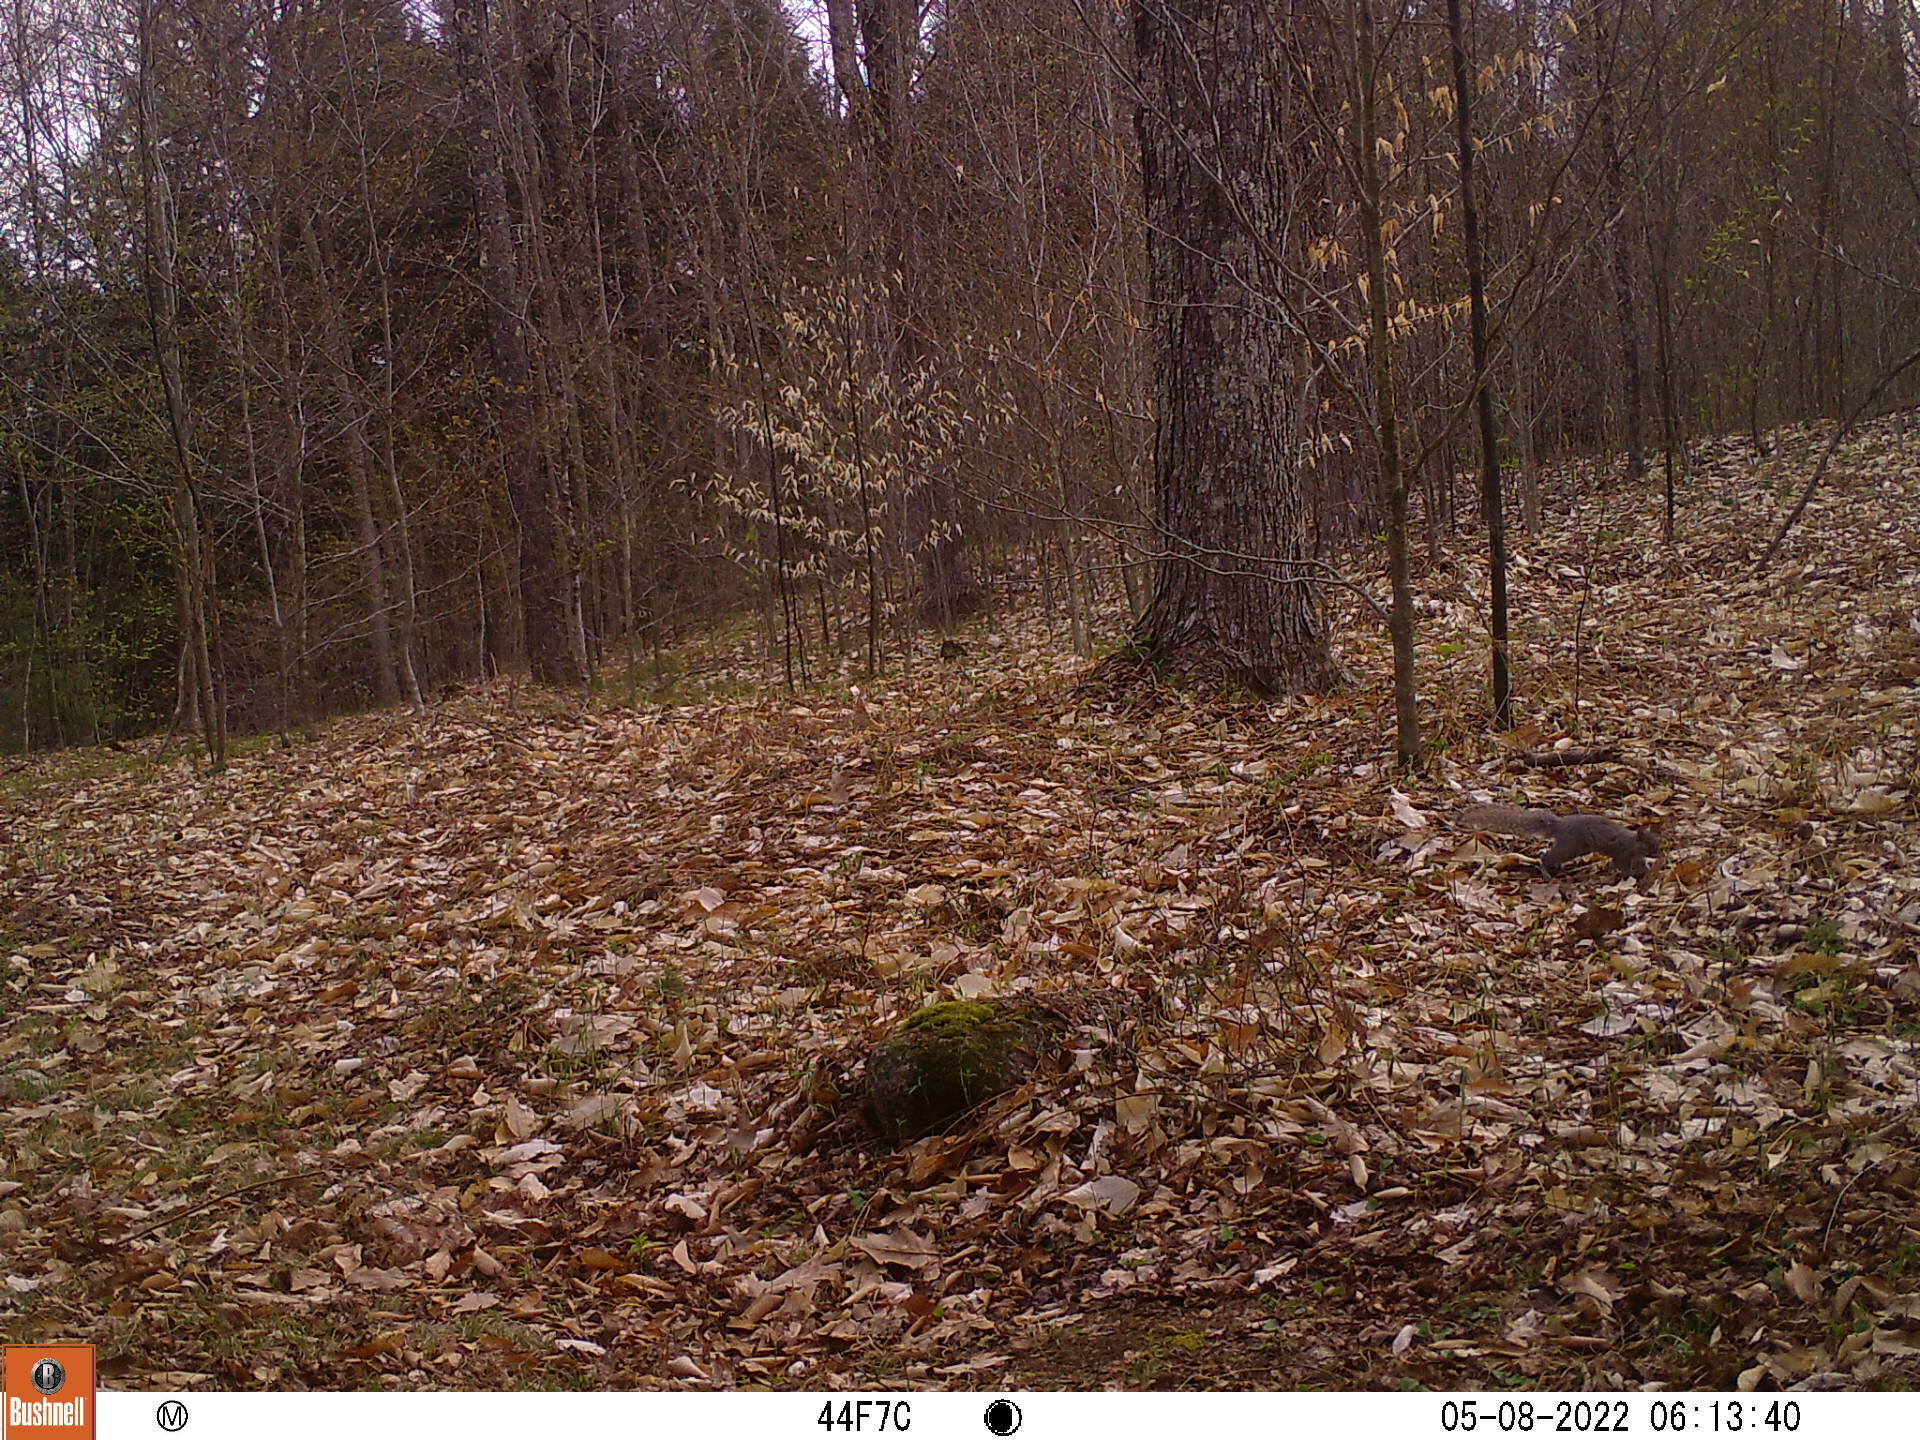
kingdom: Animalia
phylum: Chordata
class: Mammalia
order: Rodentia
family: Sciuridae
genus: Sciurus
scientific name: Sciurus carolinensis
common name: Eastern gray squirrel
